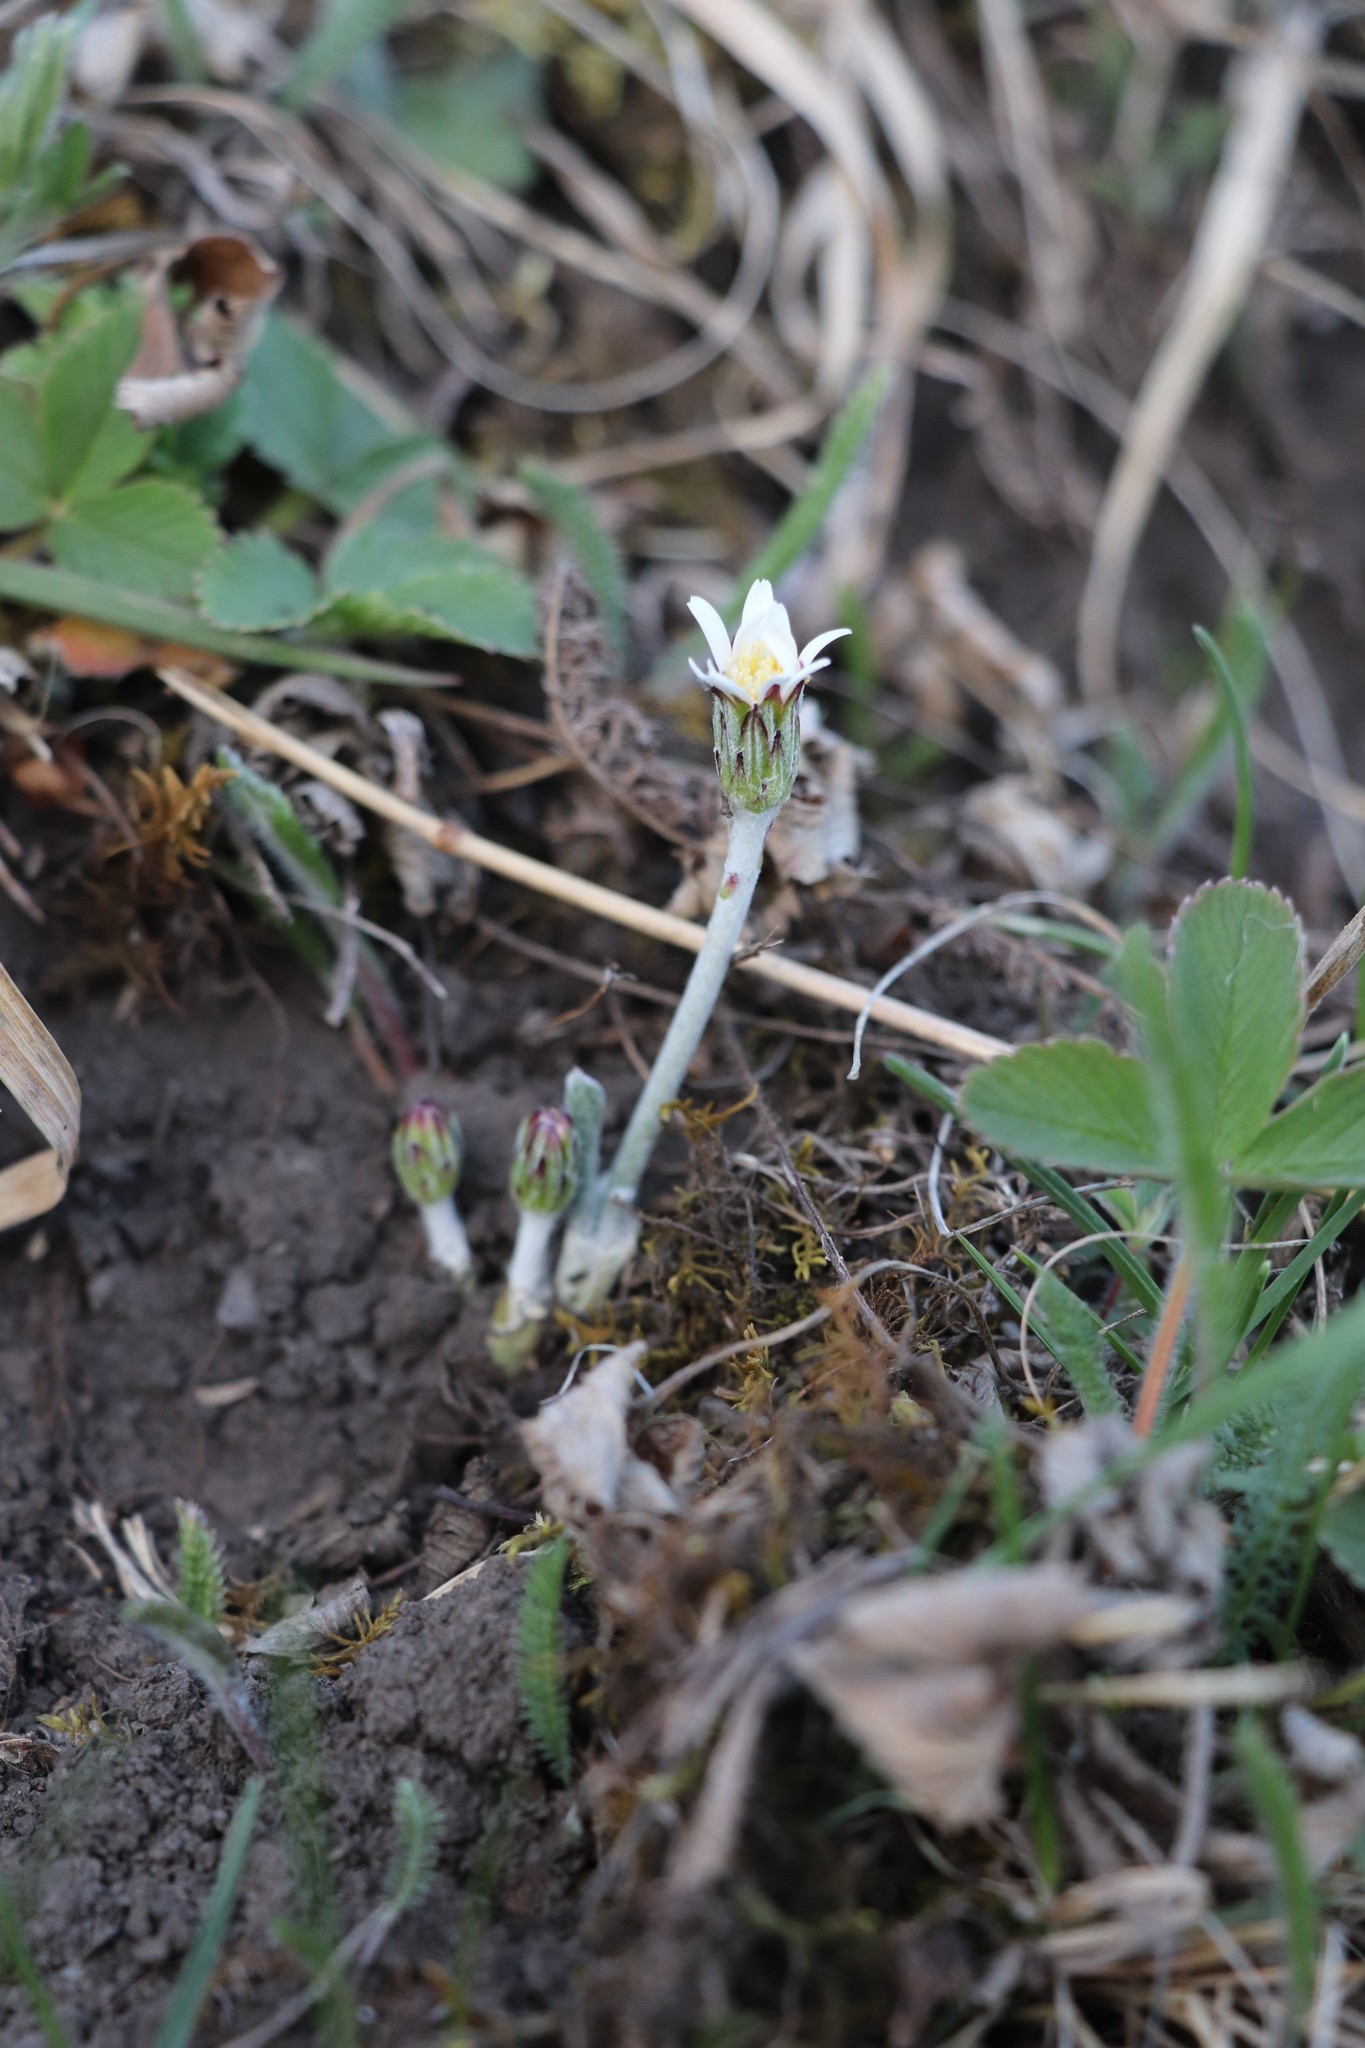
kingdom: Plantae
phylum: Tracheophyta
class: Magnoliopsida
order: Asterales
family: Asteraceae
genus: Leibnitzia
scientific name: Leibnitzia anandria
